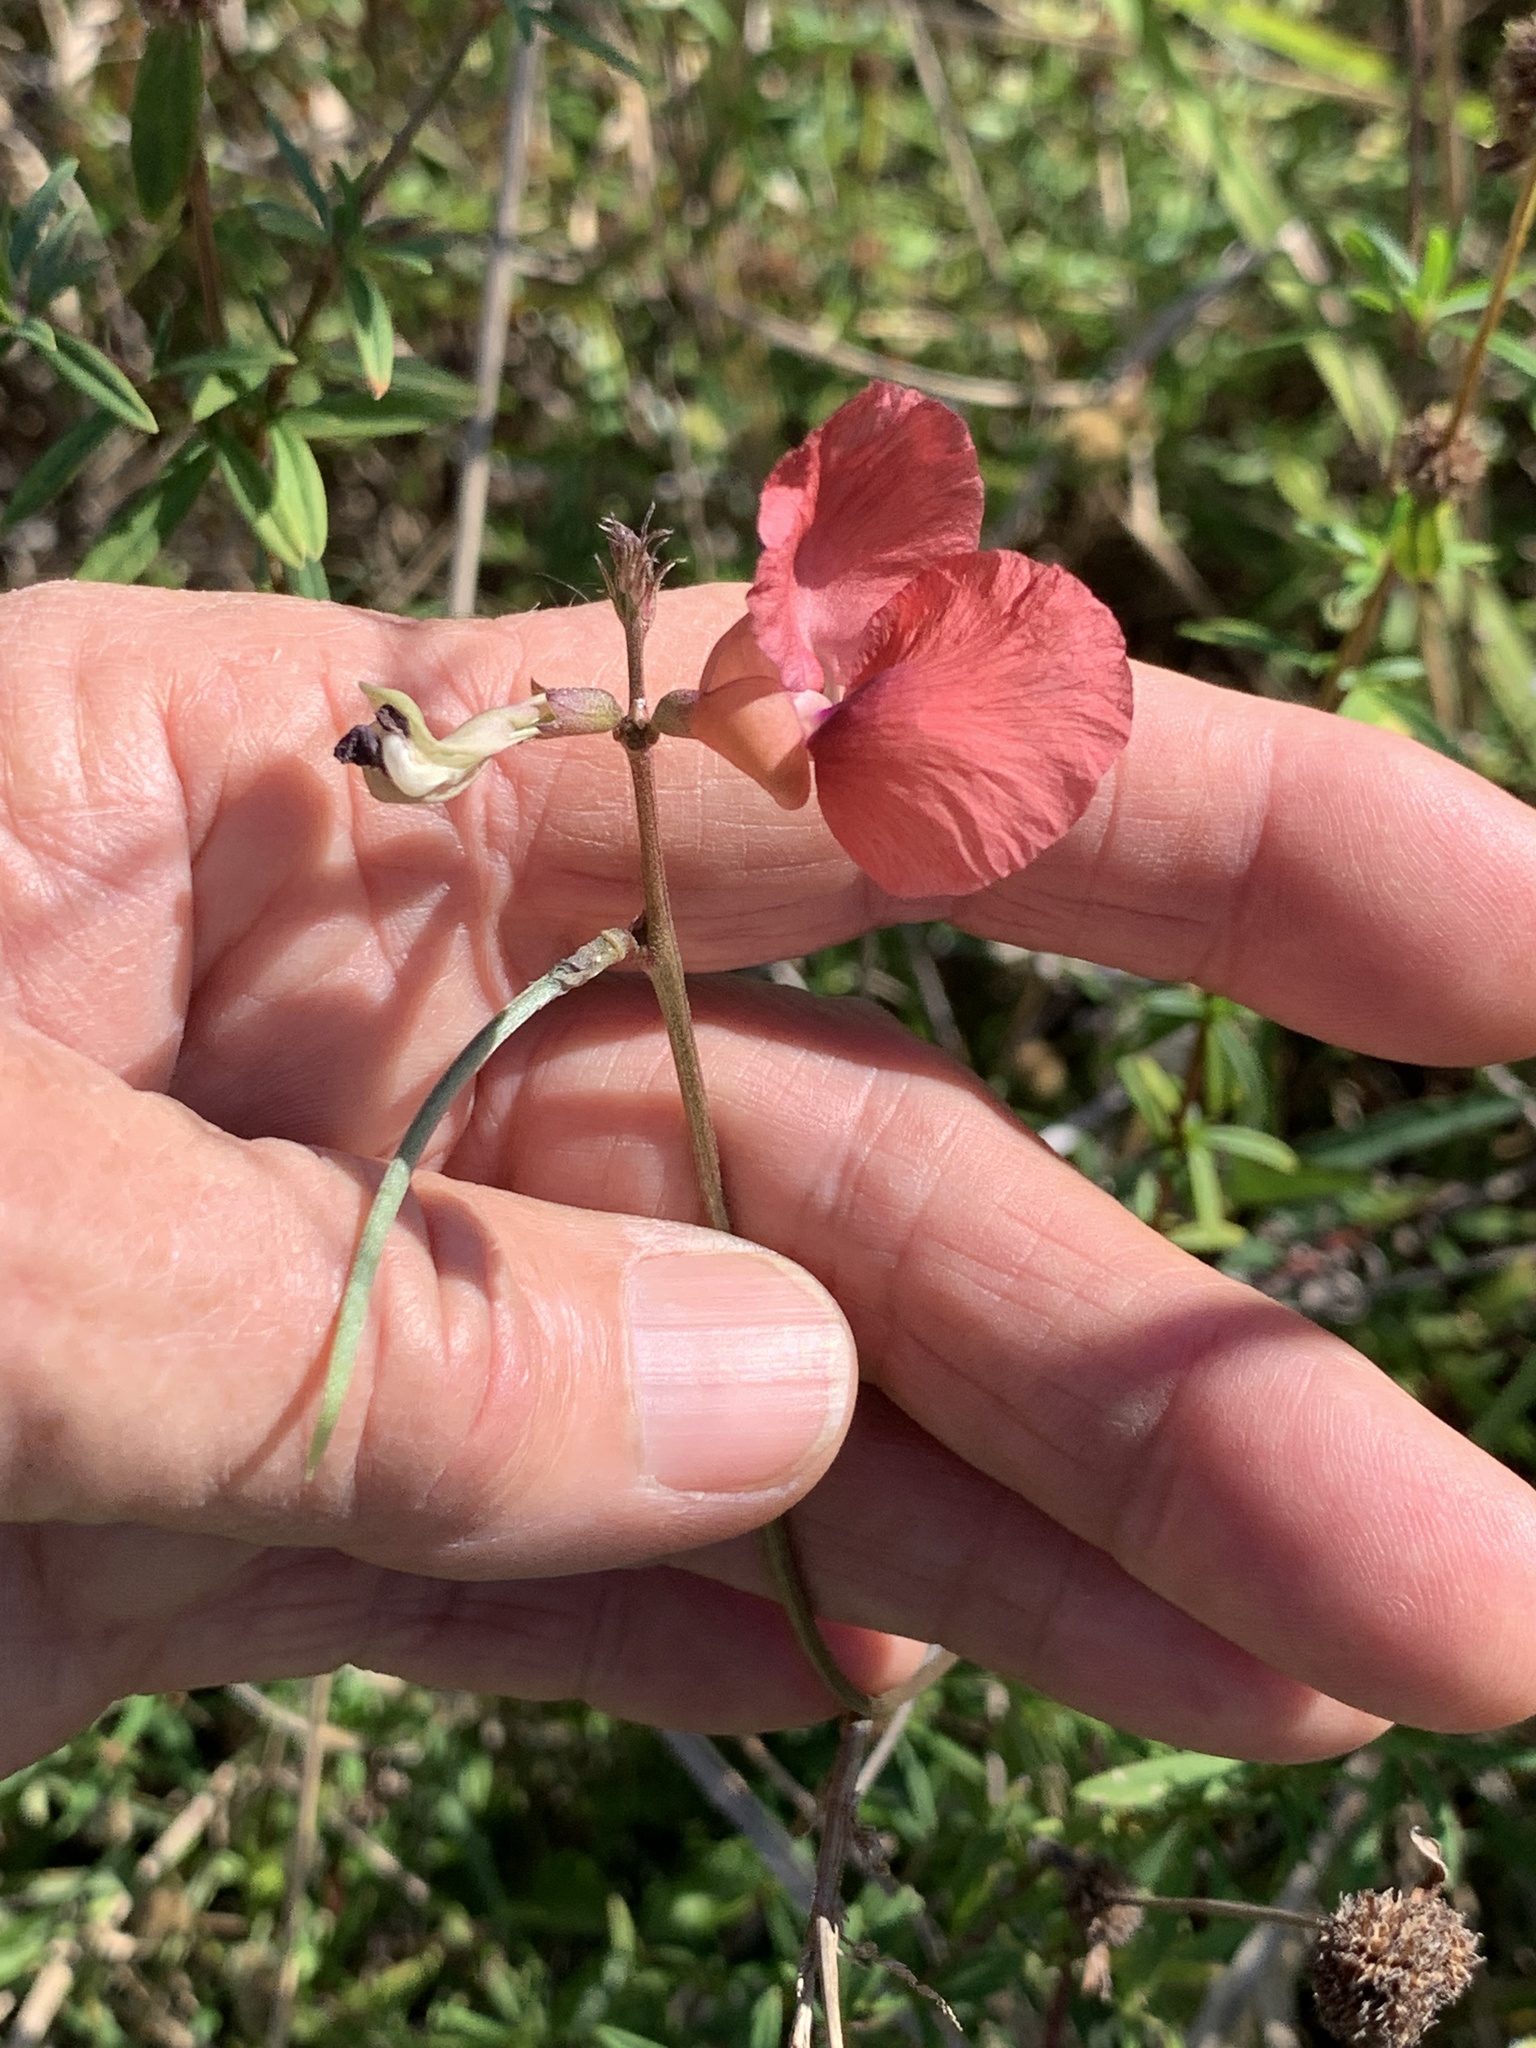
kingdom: Plantae
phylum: Tracheophyta
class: Magnoliopsida
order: Fabales
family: Fabaceae
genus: Macroptilium
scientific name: Macroptilium lathyroides
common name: Wild bushbean
